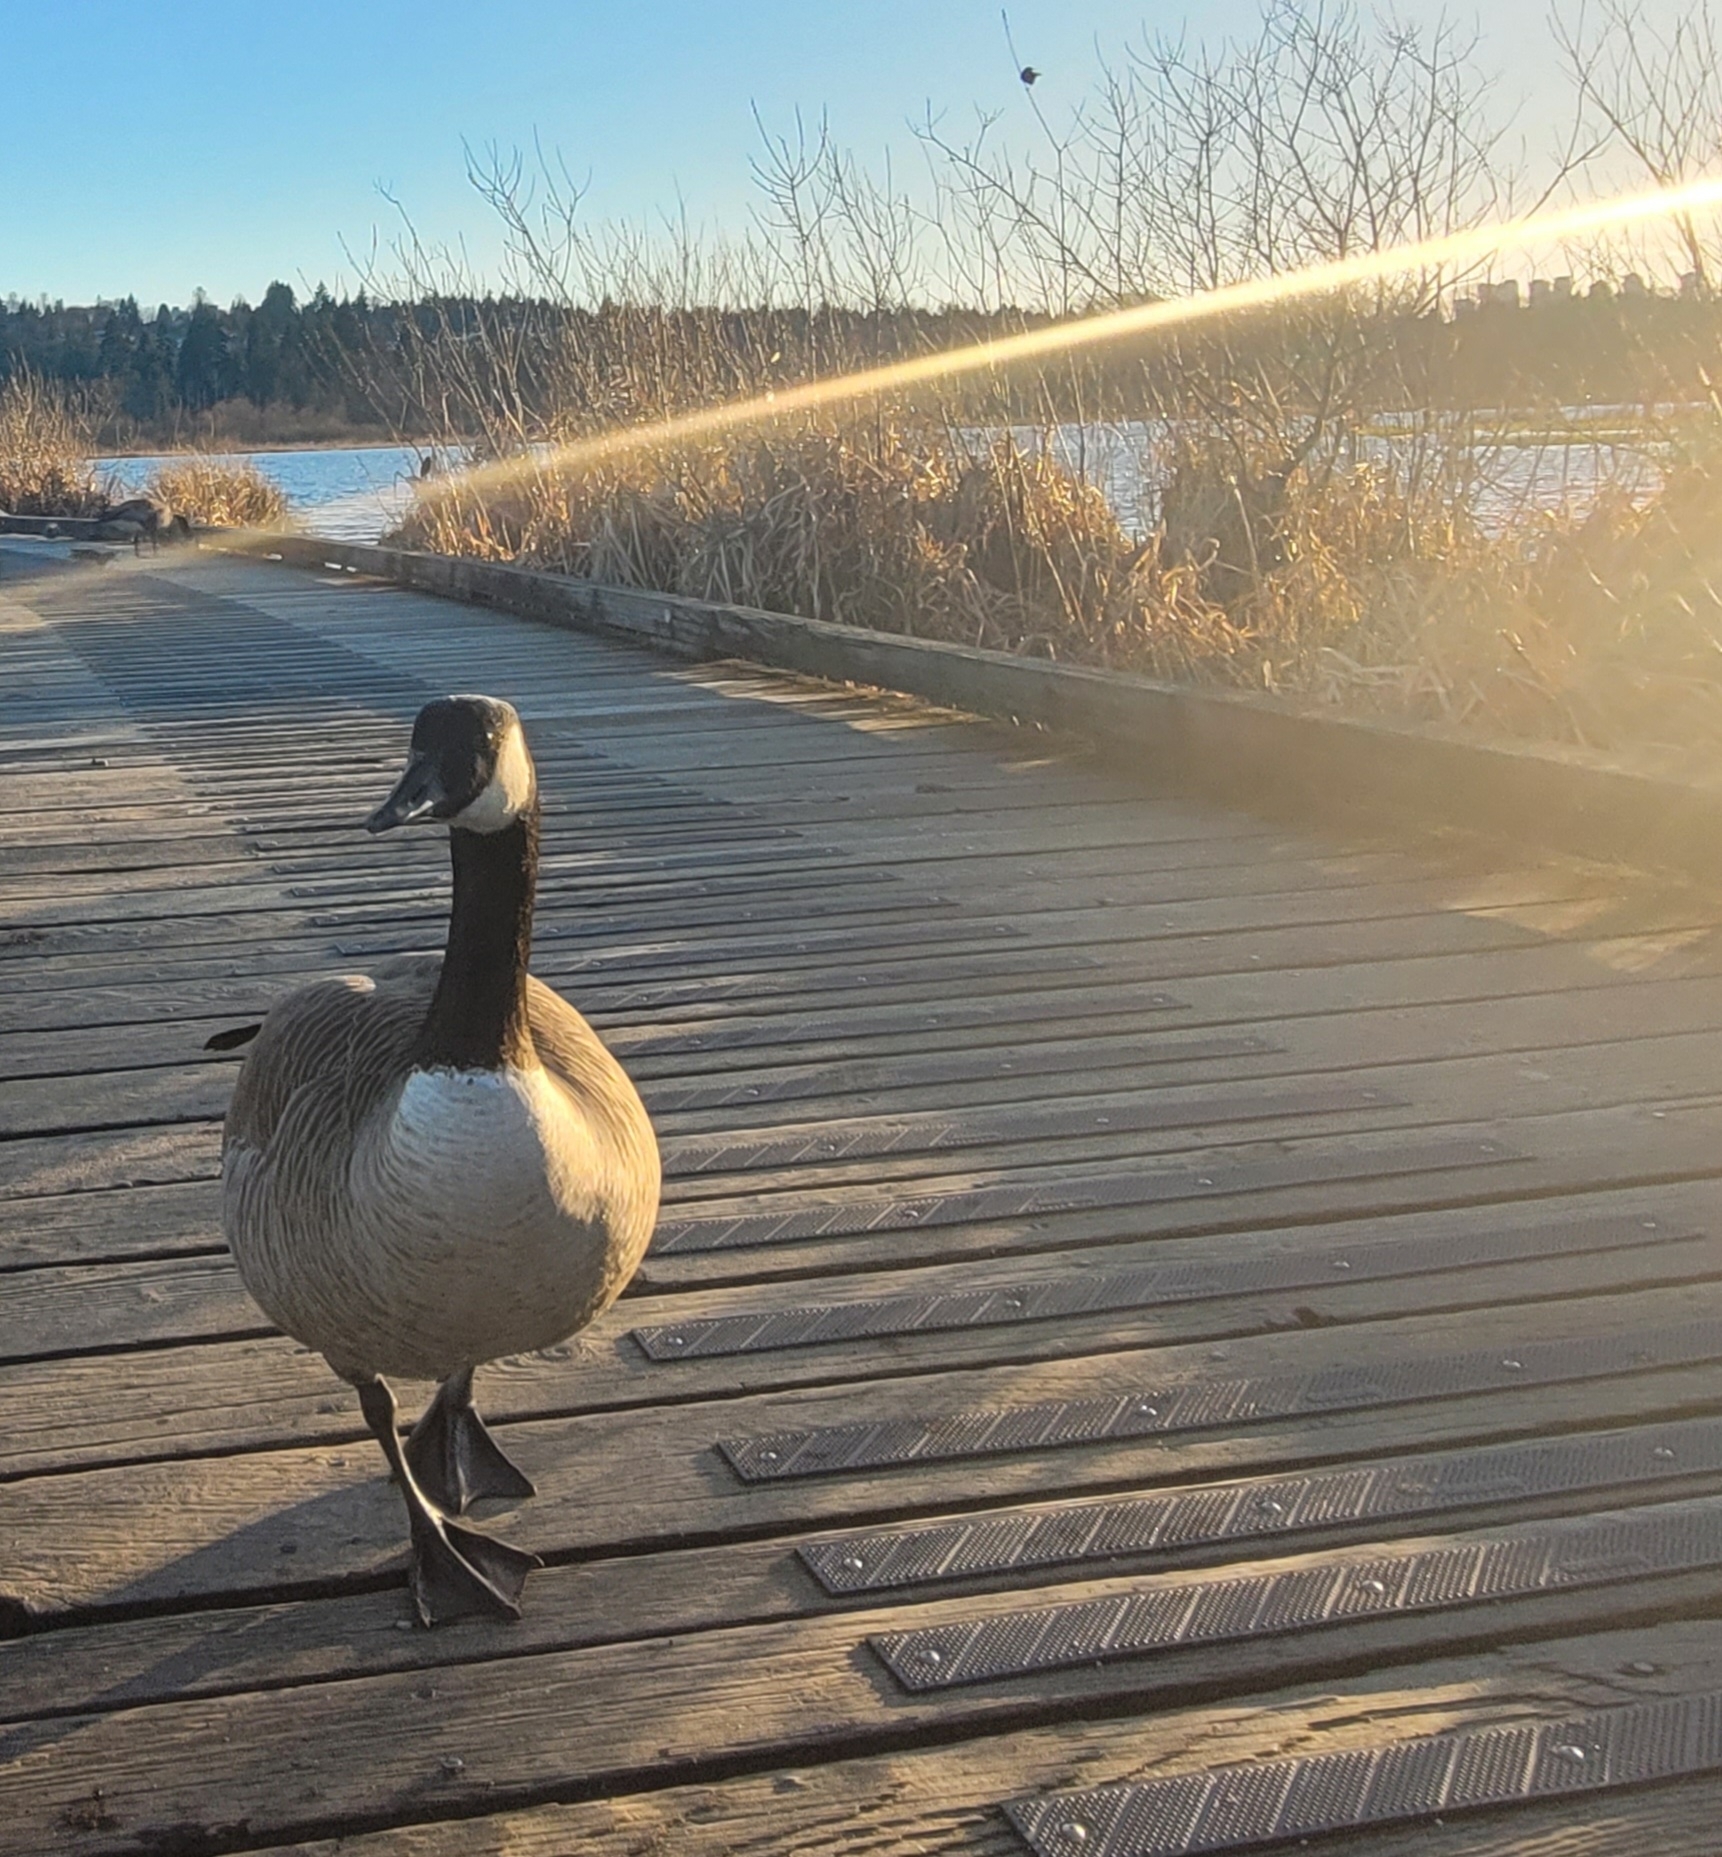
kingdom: Animalia
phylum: Chordata
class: Aves
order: Anseriformes
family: Anatidae
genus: Branta
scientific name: Branta canadensis
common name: Canada goose
